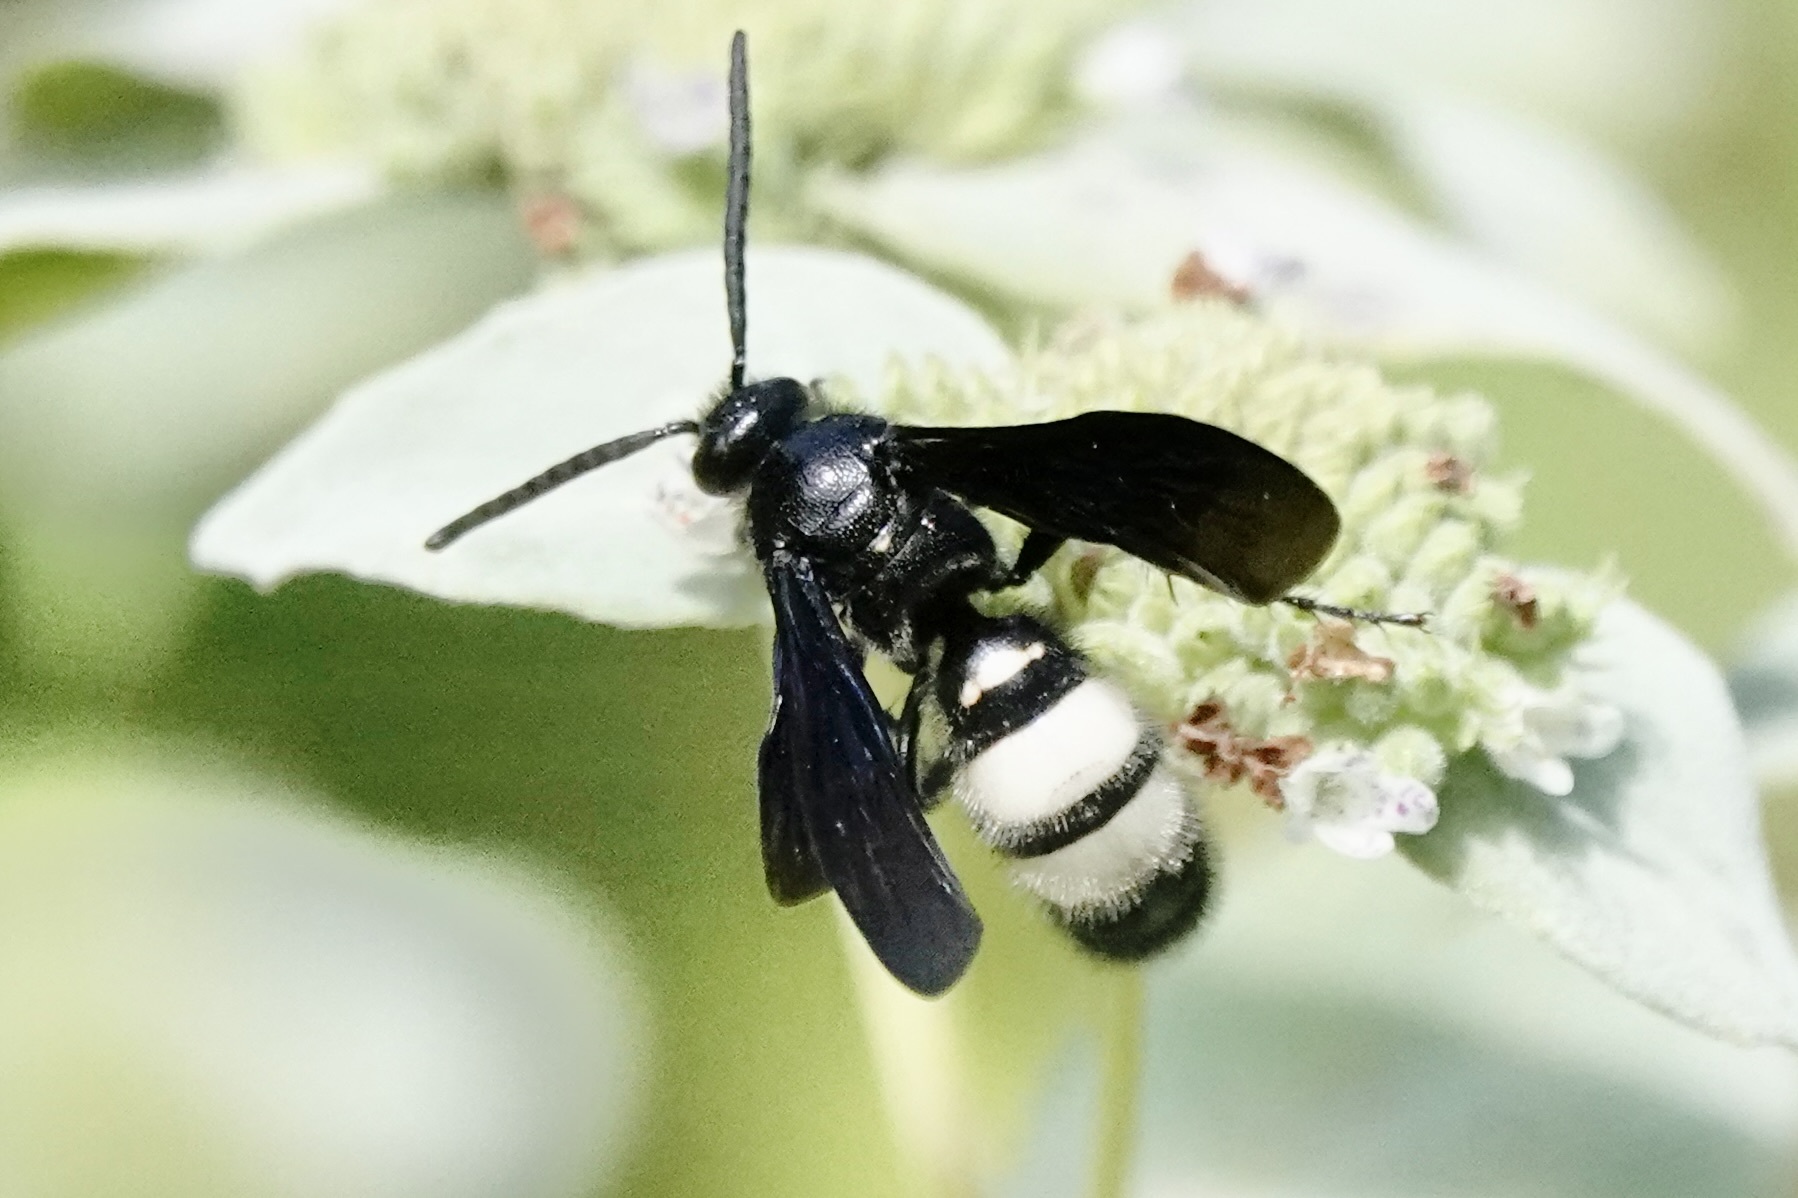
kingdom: Animalia
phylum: Arthropoda
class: Insecta
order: Hymenoptera
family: Scoliidae
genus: Scolia
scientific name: Scolia bicincta
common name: Double-banded scoliid wasp
